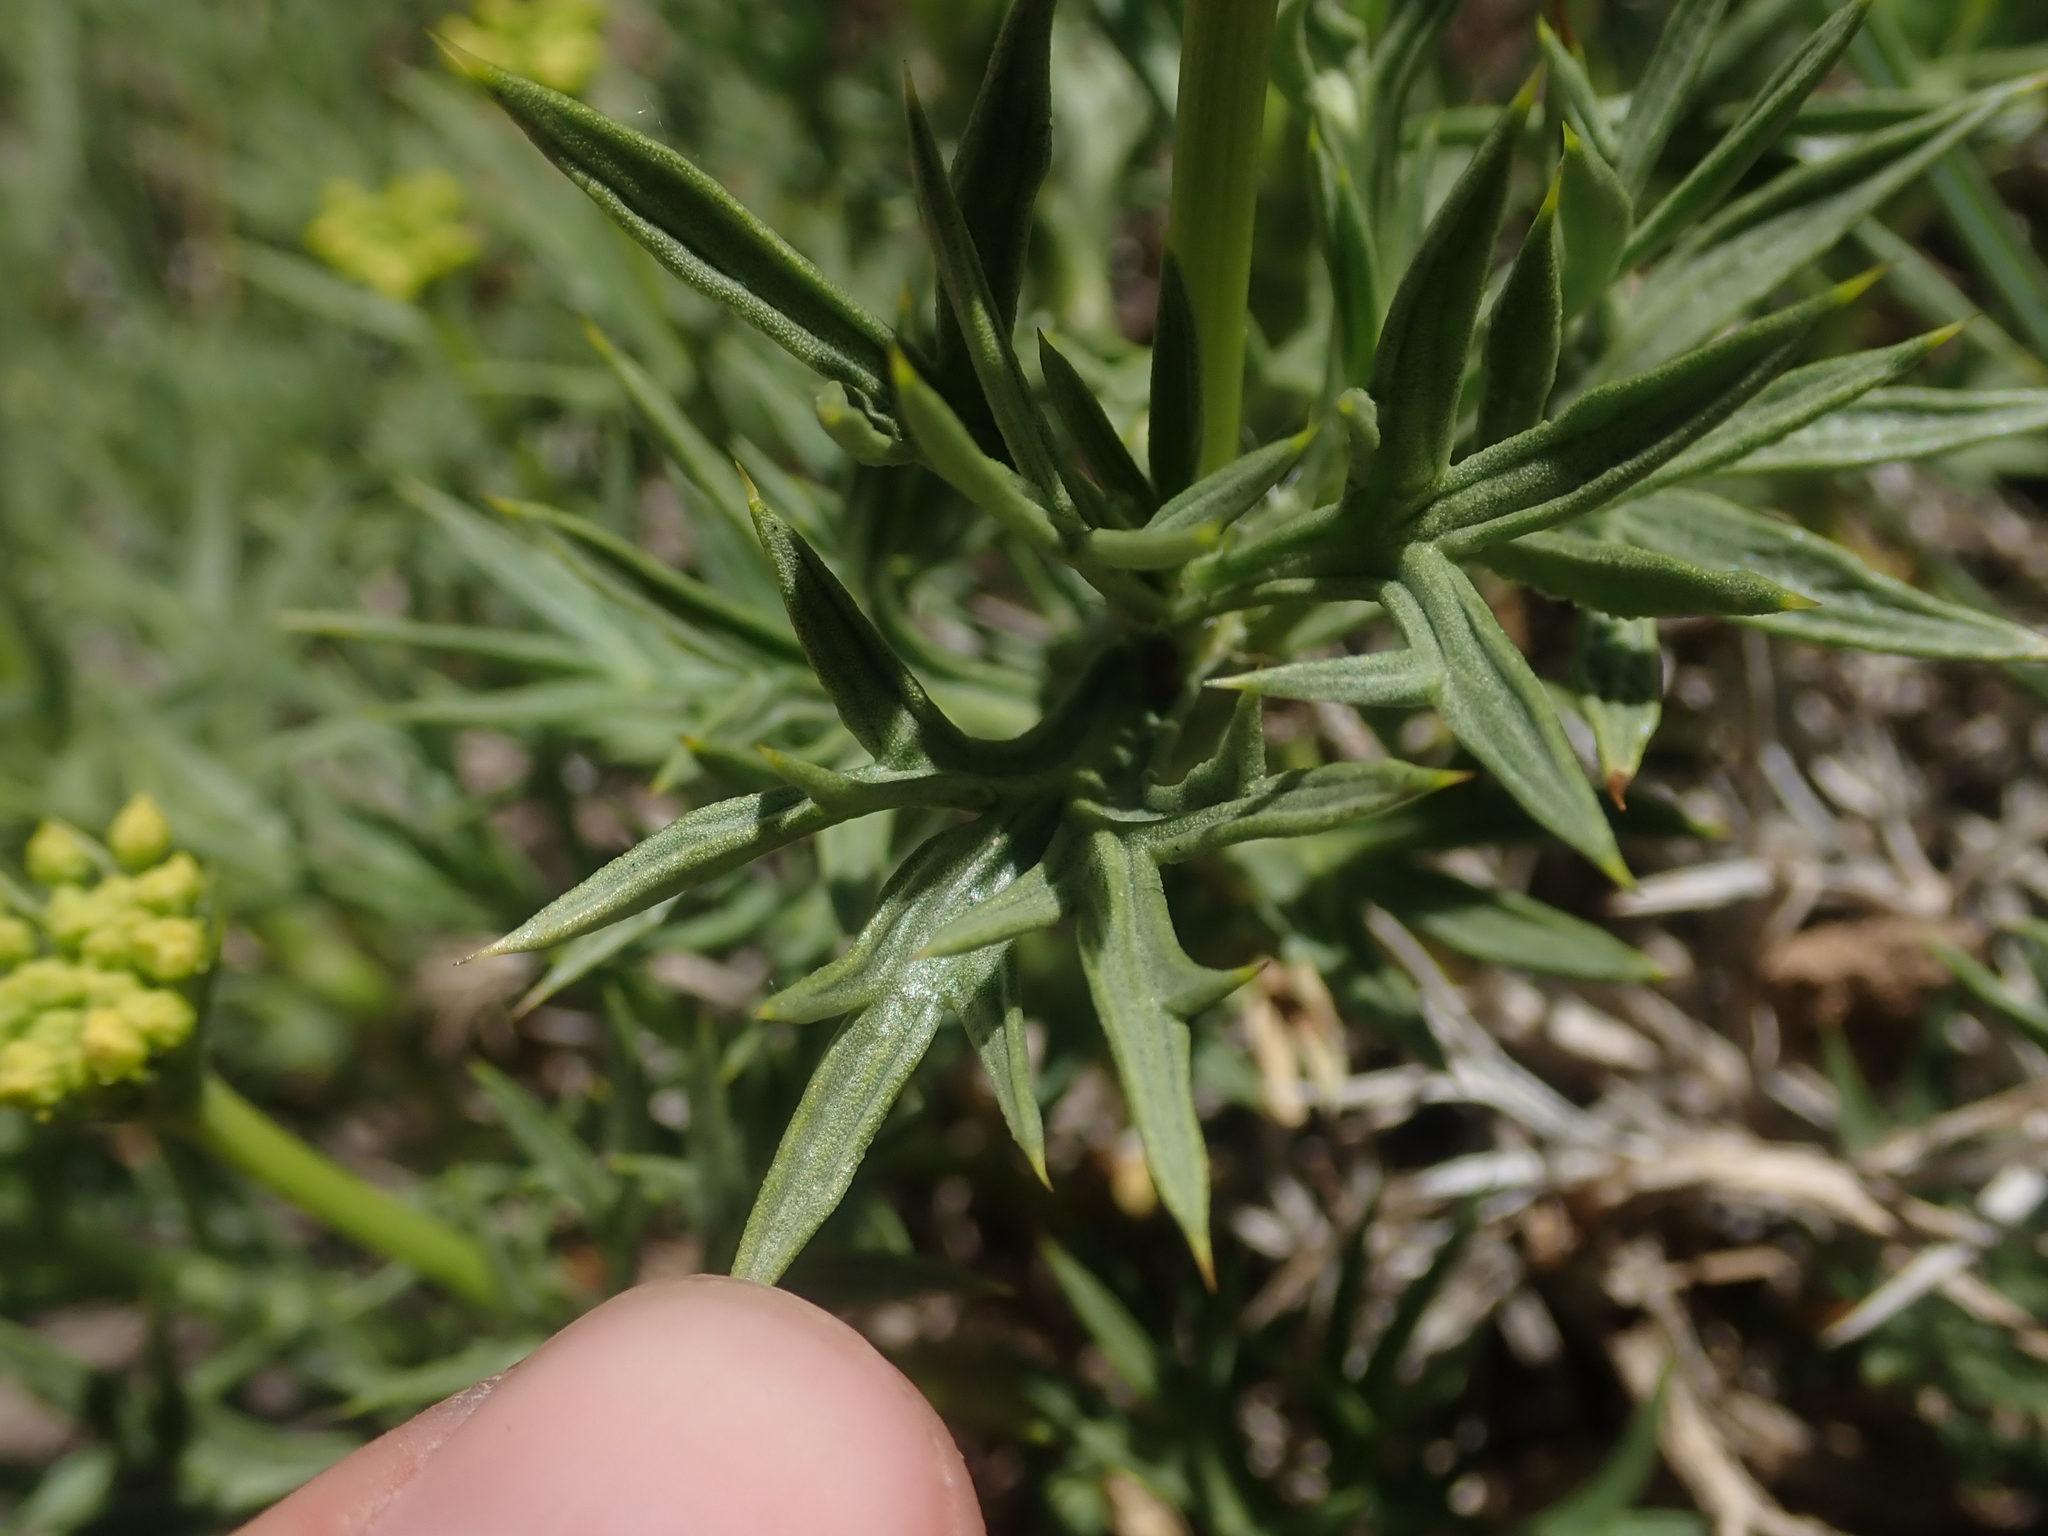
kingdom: Plantae
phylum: Tracheophyta
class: Magnoliopsida
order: Apiales
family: Apiaceae
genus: Azorella
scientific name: Azorella prolifera
